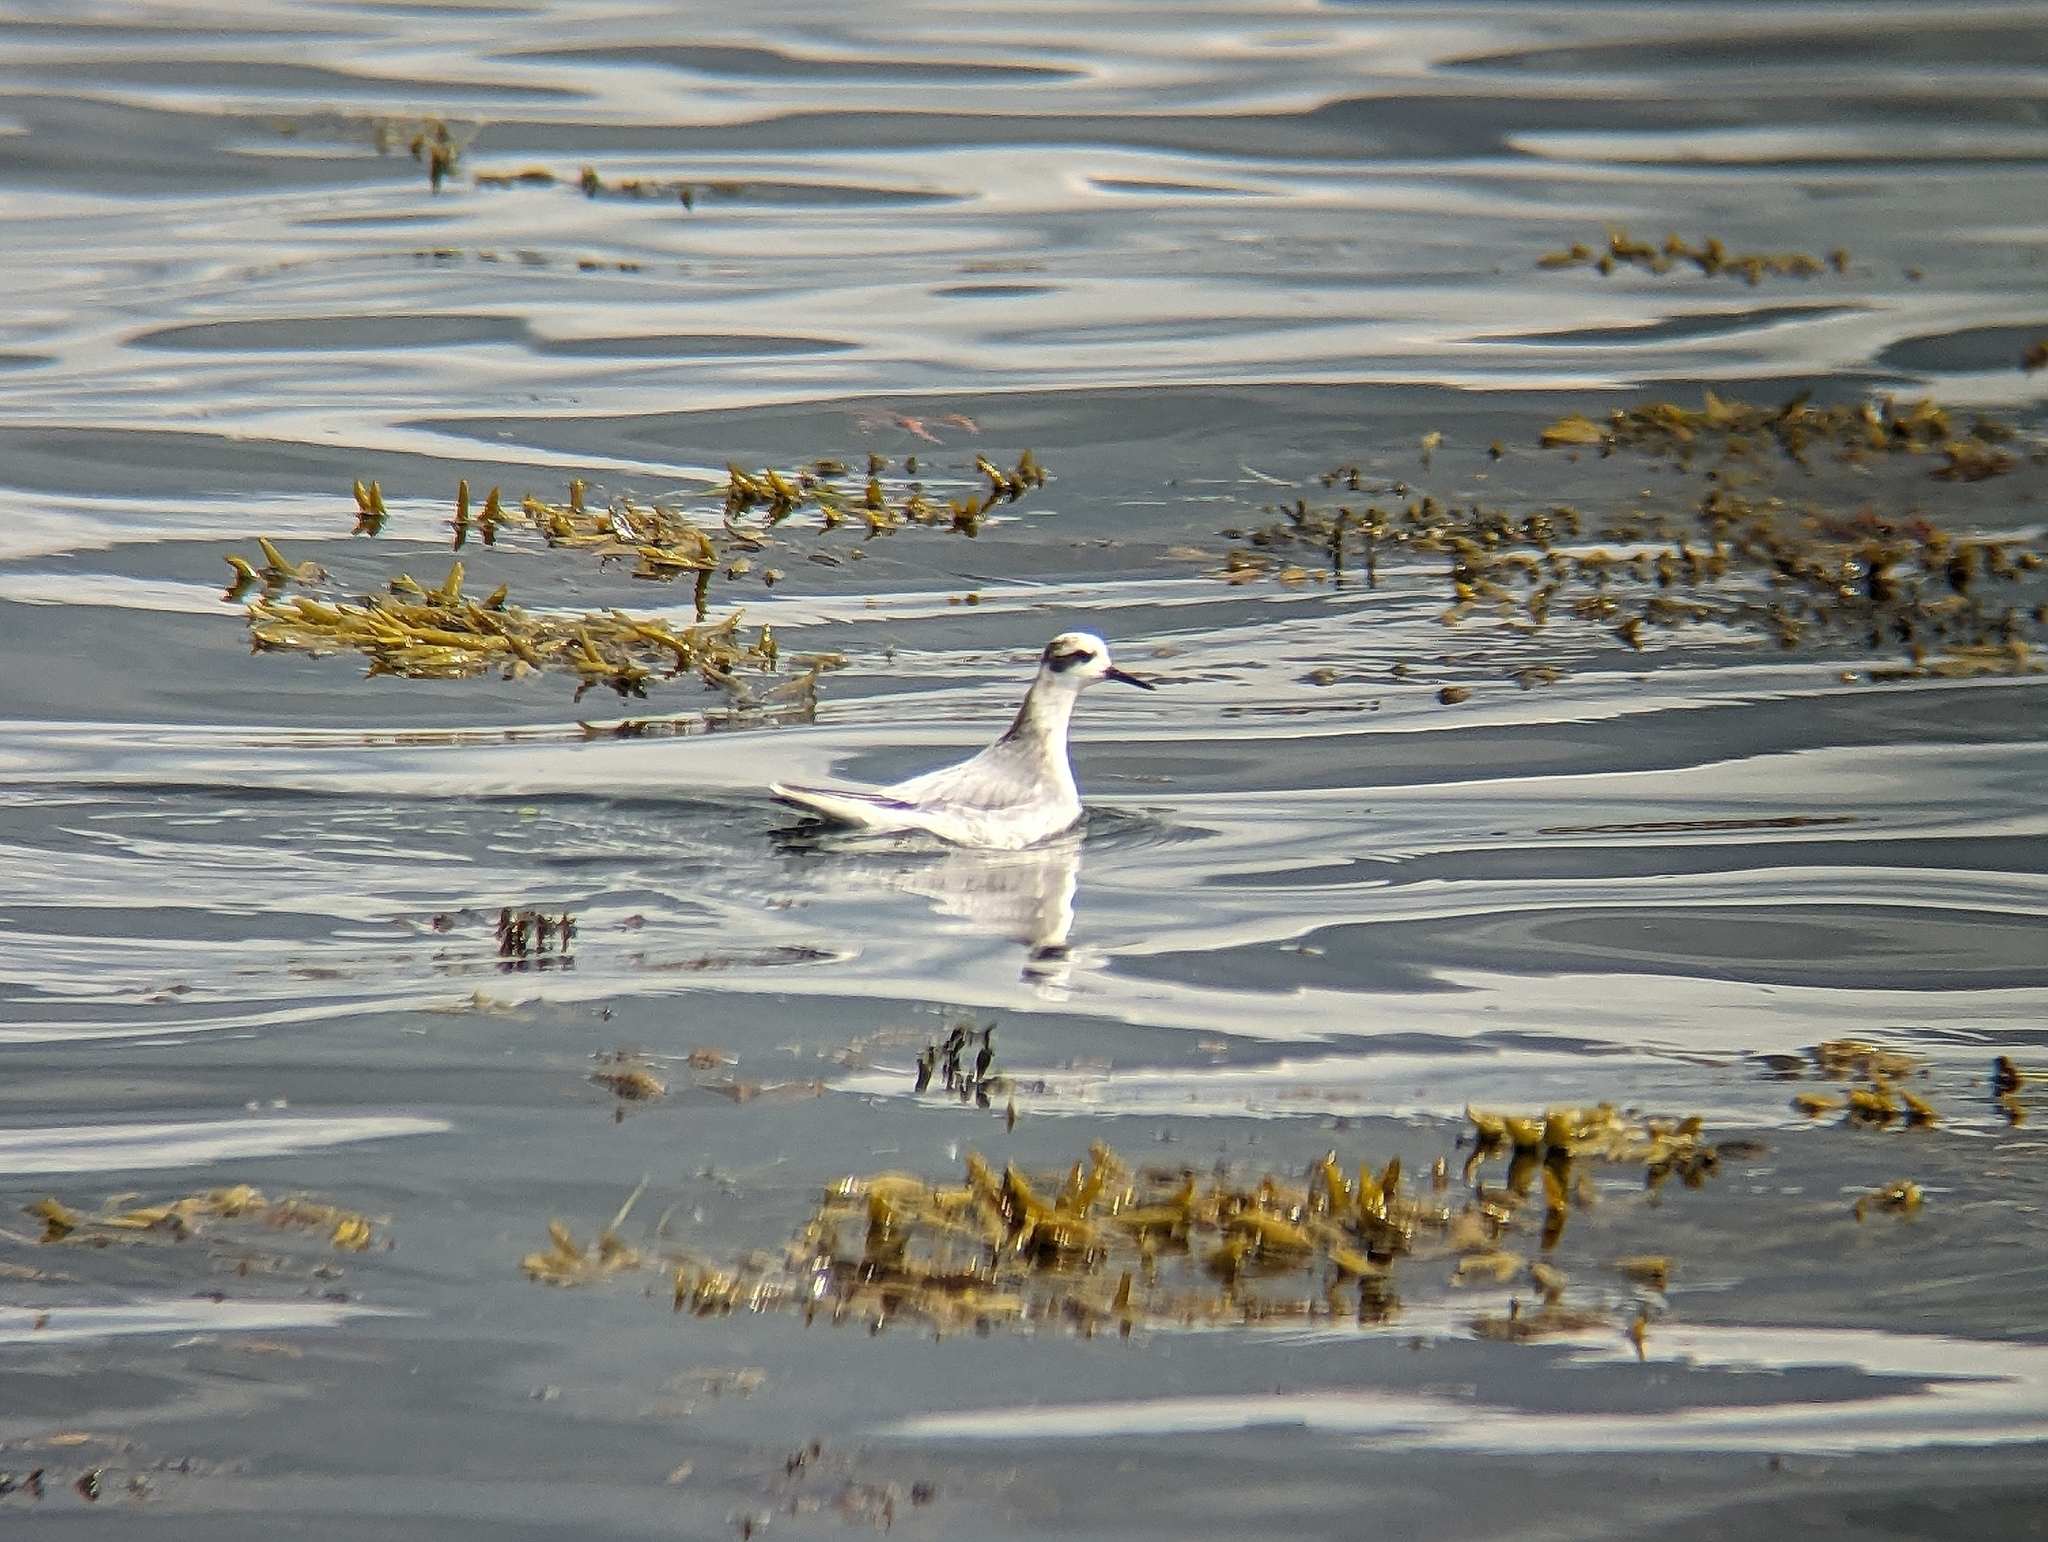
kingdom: Animalia
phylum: Chordata
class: Aves
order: Charadriiformes
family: Scolopacidae
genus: Phalaropus
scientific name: Phalaropus fulicarius
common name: Red phalarope
